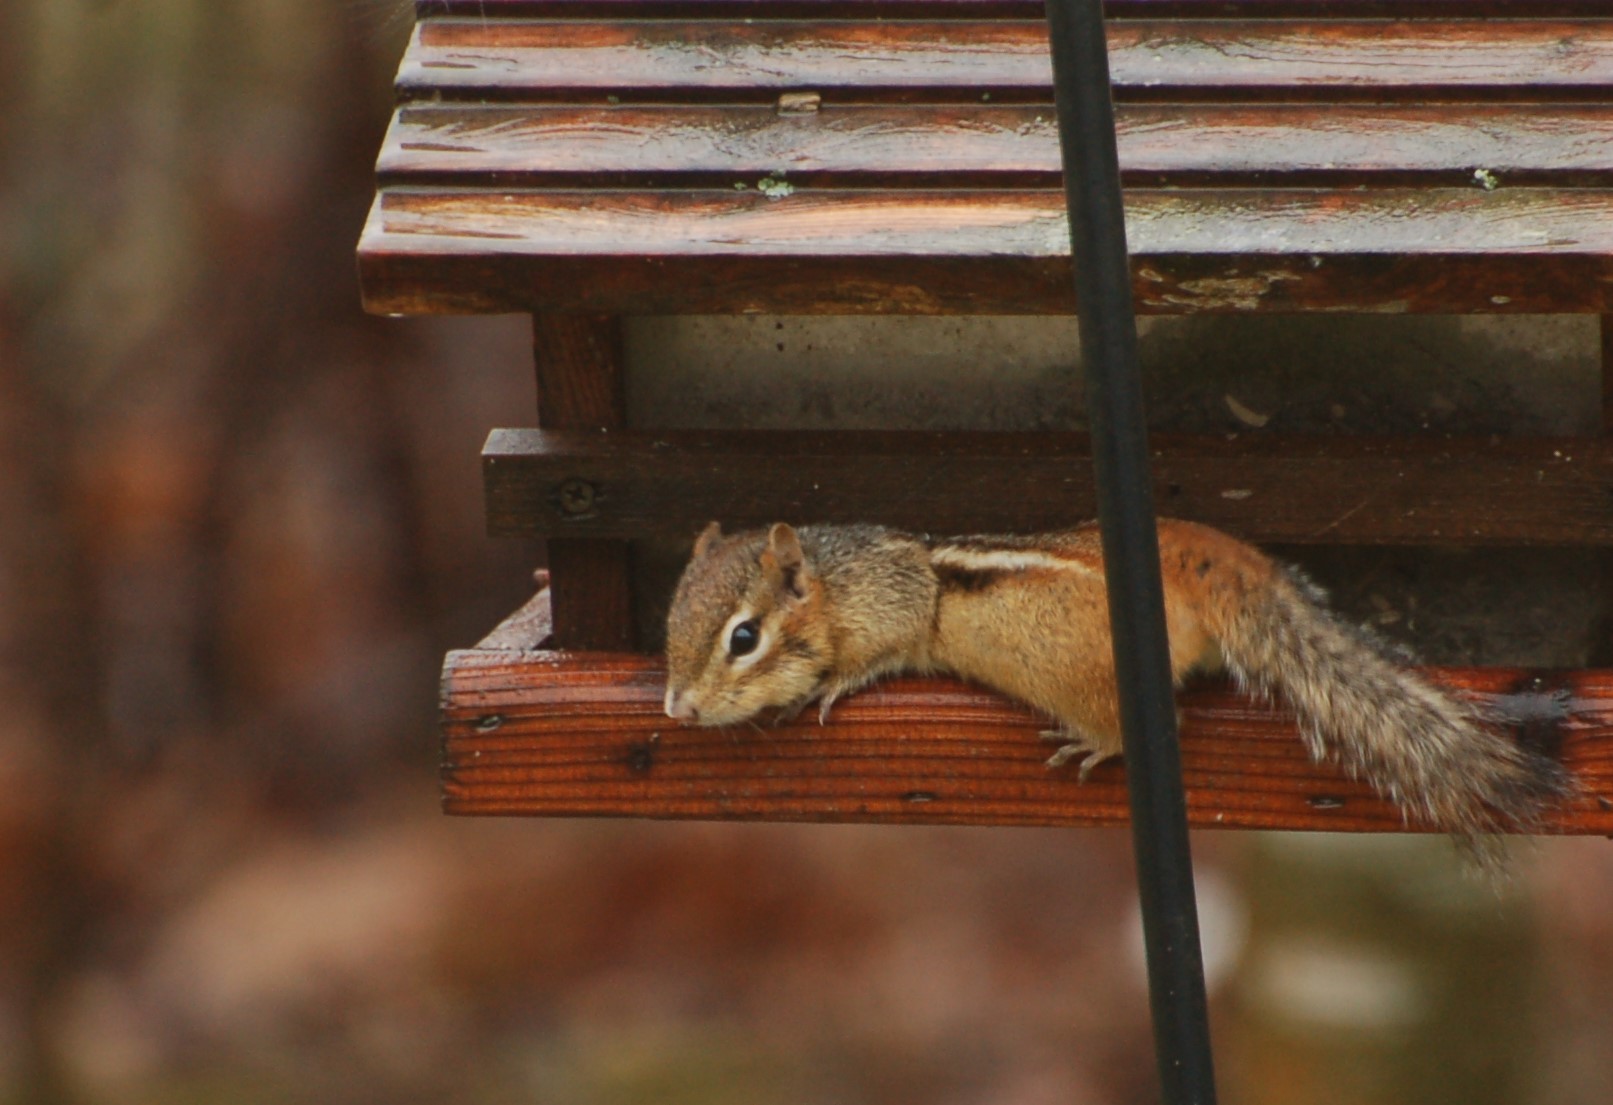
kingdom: Animalia
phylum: Chordata
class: Mammalia
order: Rodentia
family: Sciuridae
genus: Tamias
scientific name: Tamias striatus
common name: Eastern chipmunk
